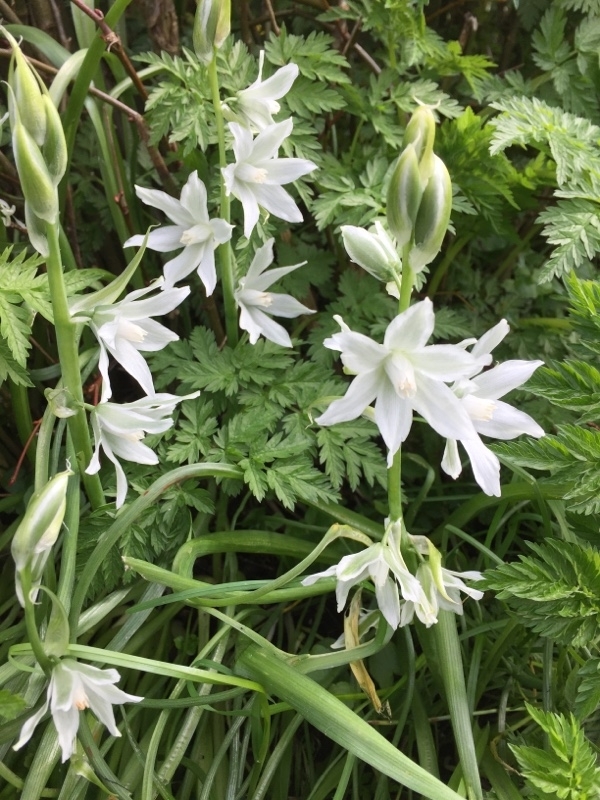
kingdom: Plantae
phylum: Tracheophyta
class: Liliopsida
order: Asparagales
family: Asparagaceae
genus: Ornithogalum
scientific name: Ornithogalum nutans
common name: Drooping star-of-bethlehem
